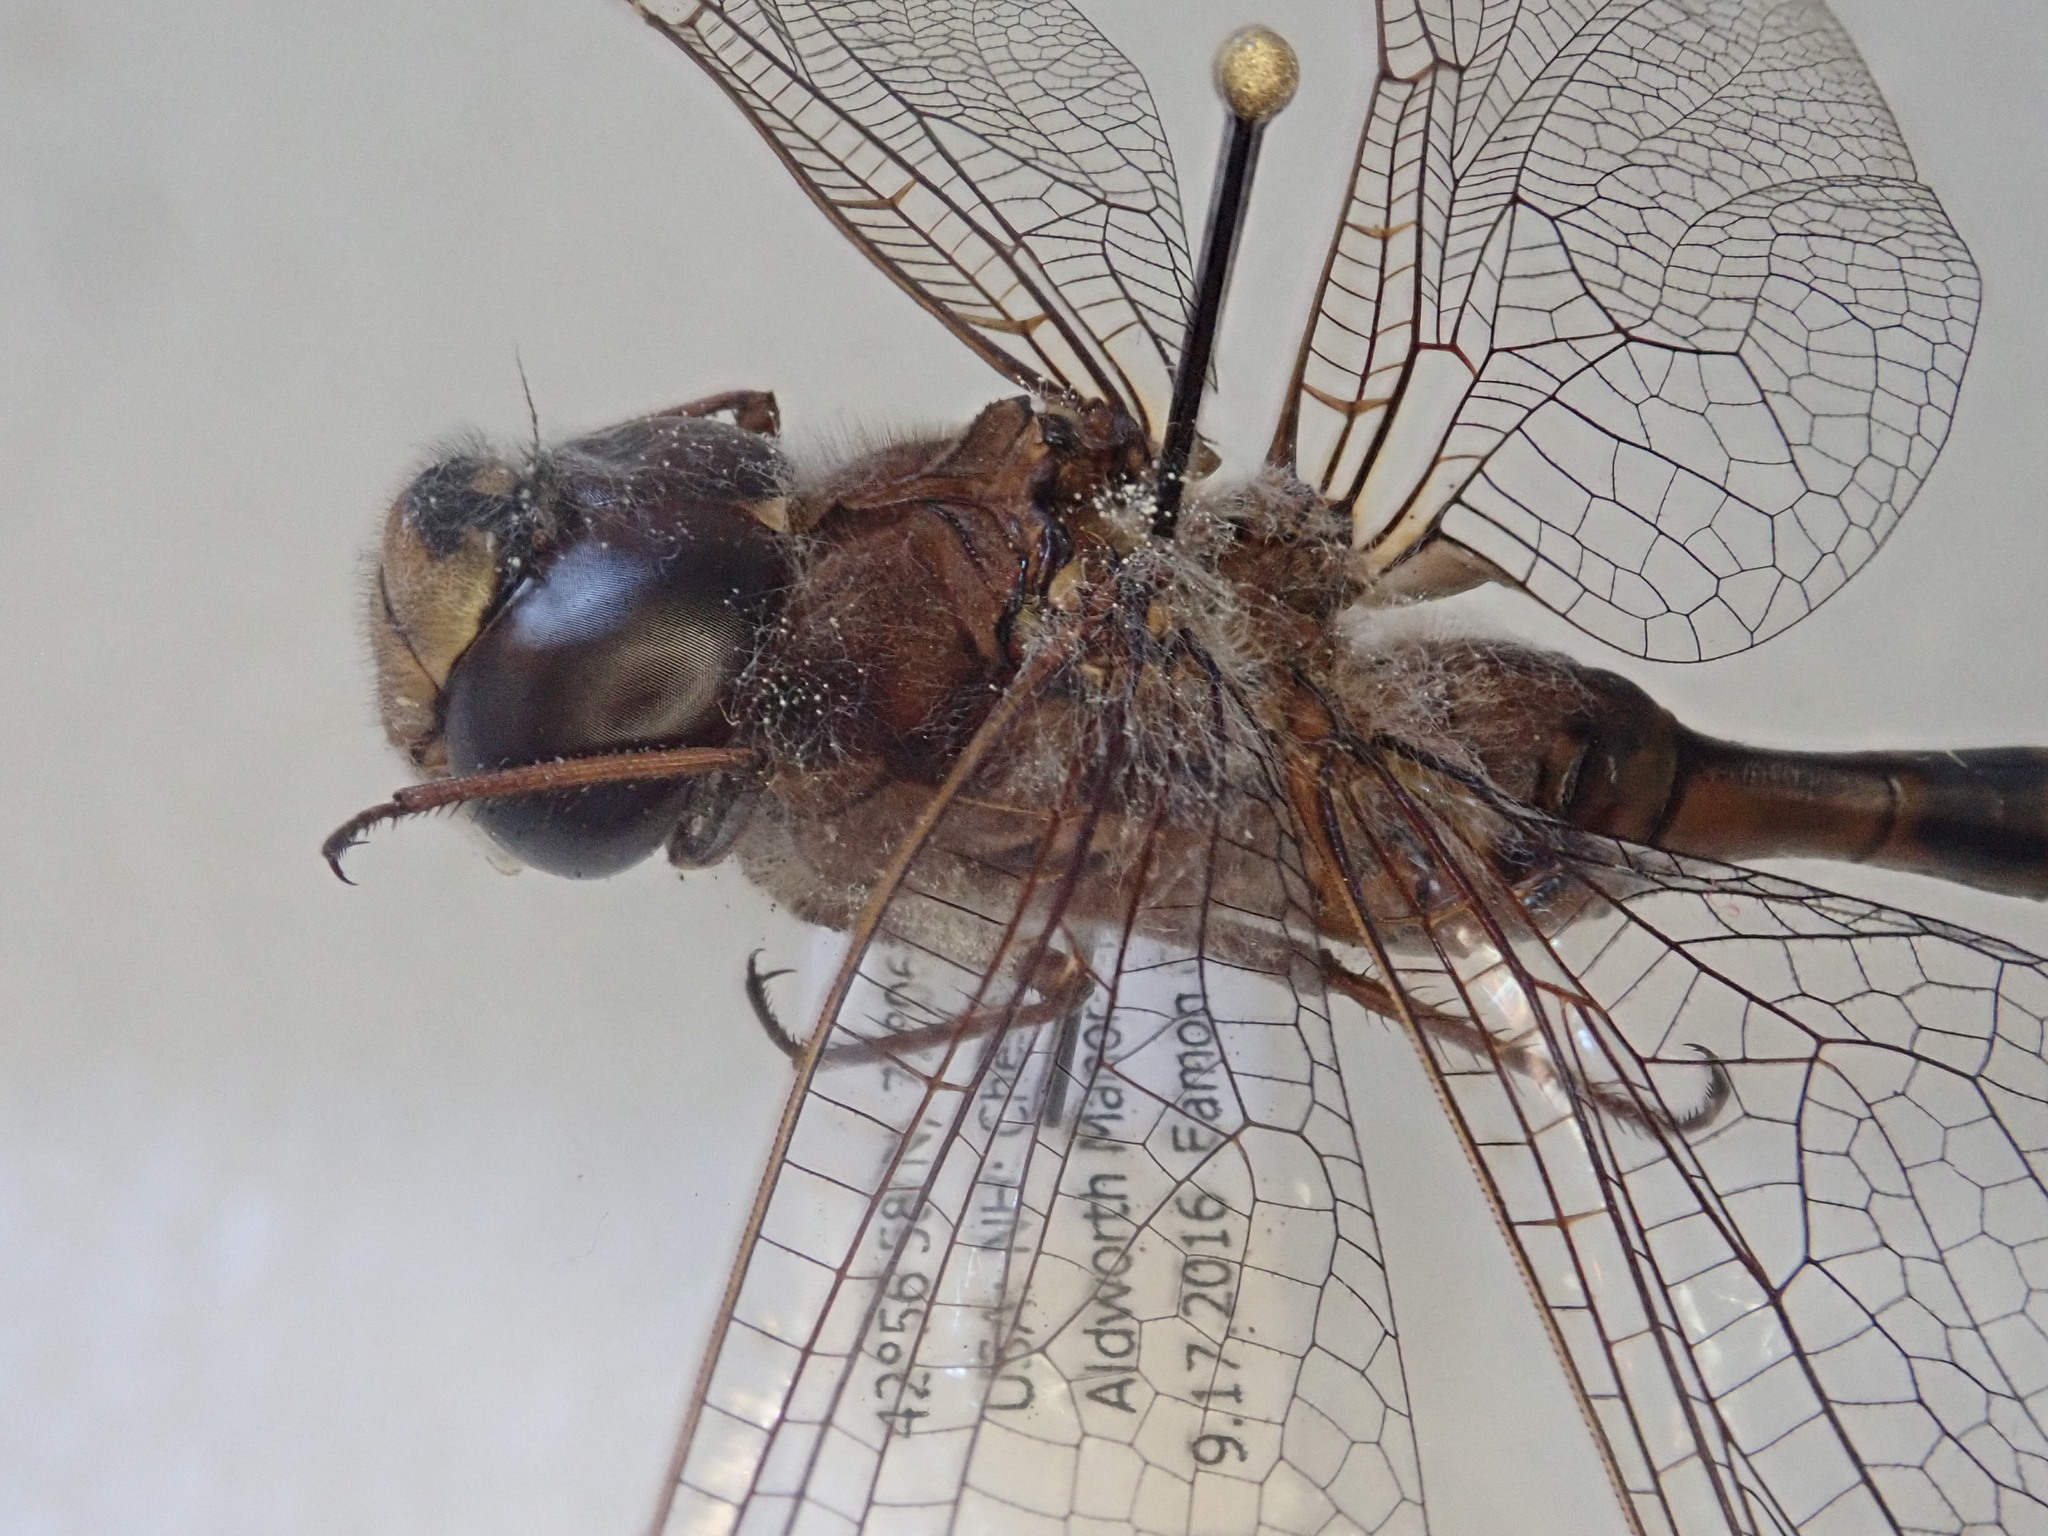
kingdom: Animalia
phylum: Arthropoda
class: Insecta
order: Odonata
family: Aeshnidae
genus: Aeshna
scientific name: Aeshna clepsydra
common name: Mottled darner
